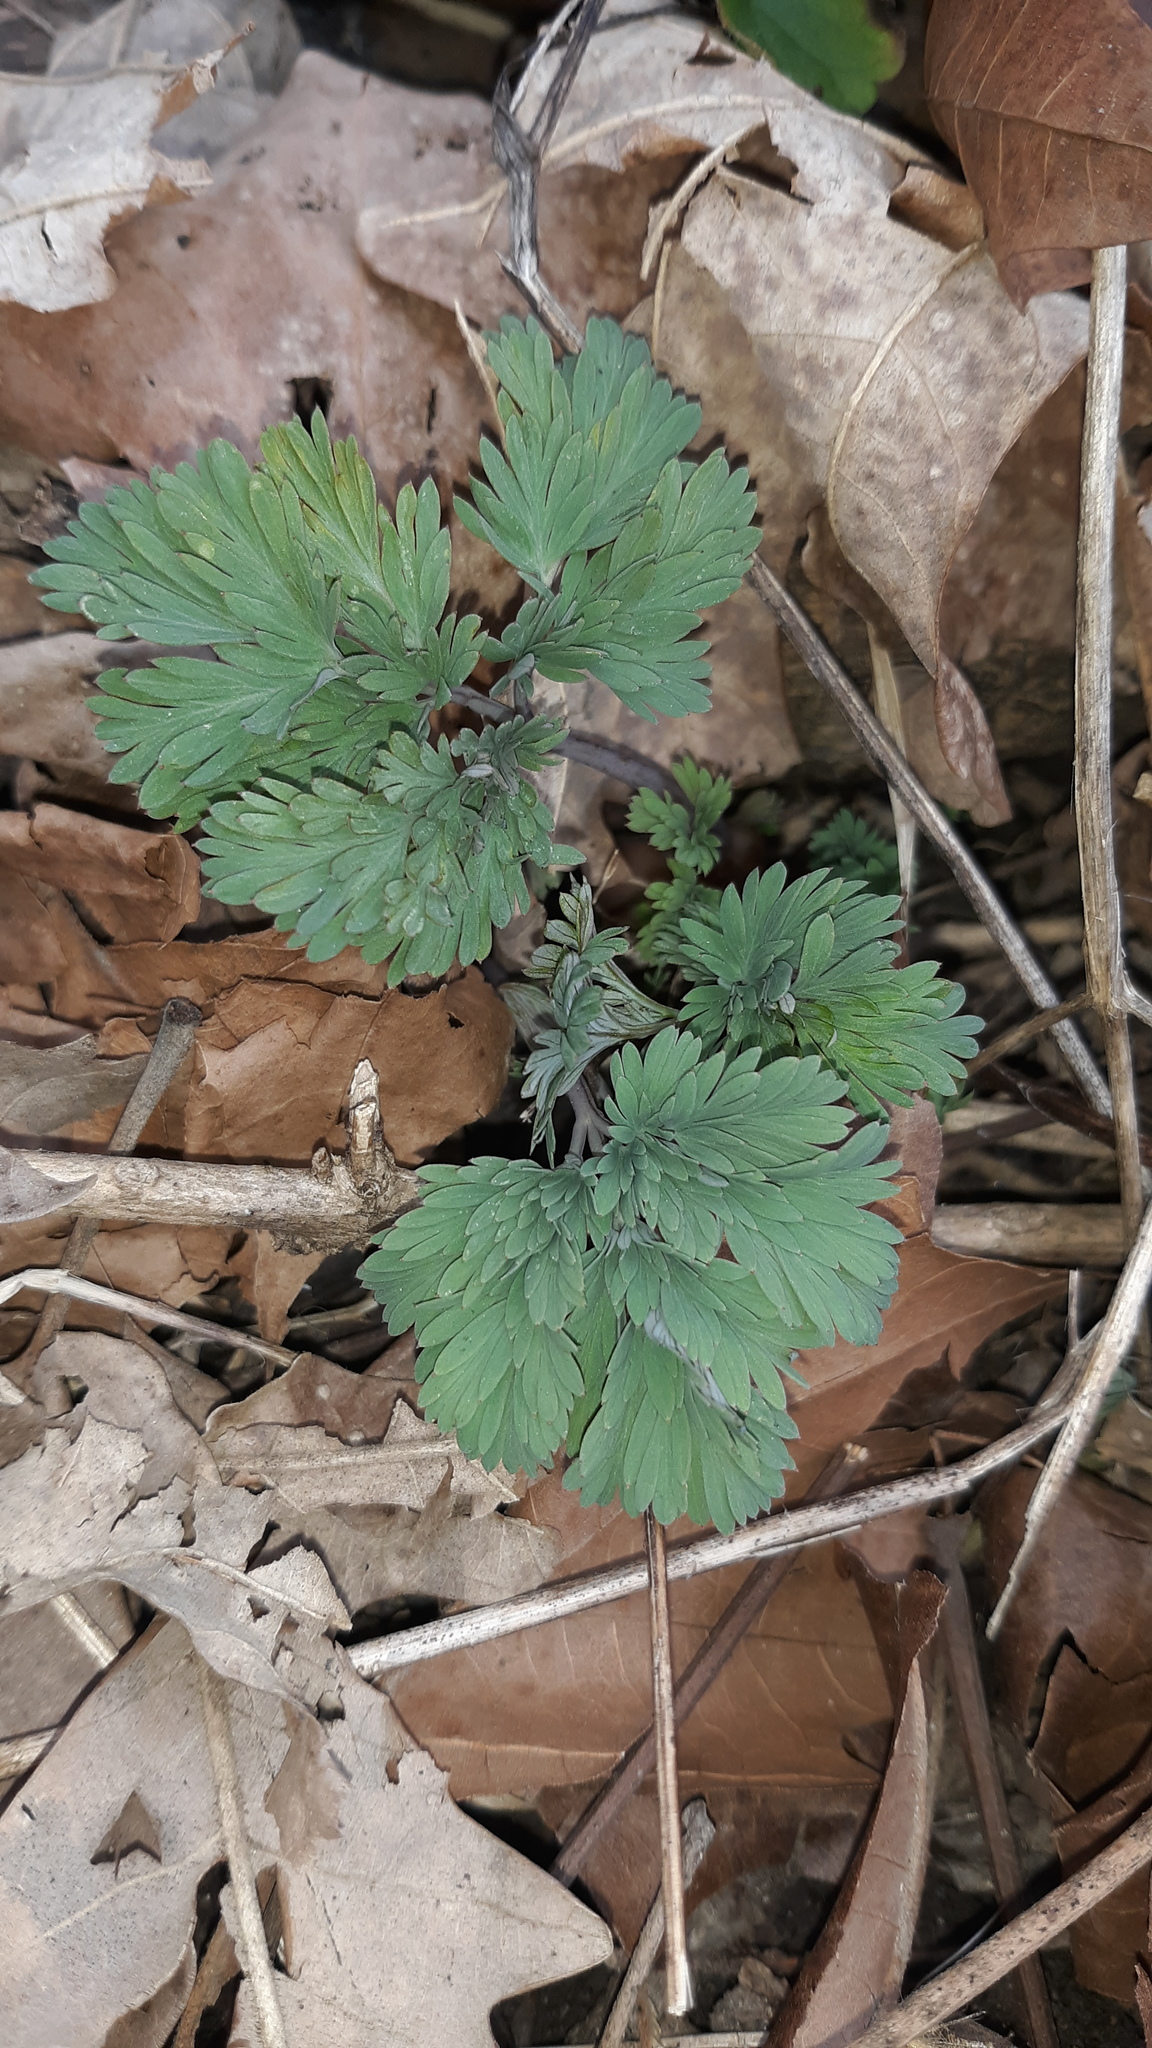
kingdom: Plantae
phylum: Tracheophyta
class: Magnoliopsida
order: Ranunculales
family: Papaveraceae
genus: Dicentra
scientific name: Dicentra
